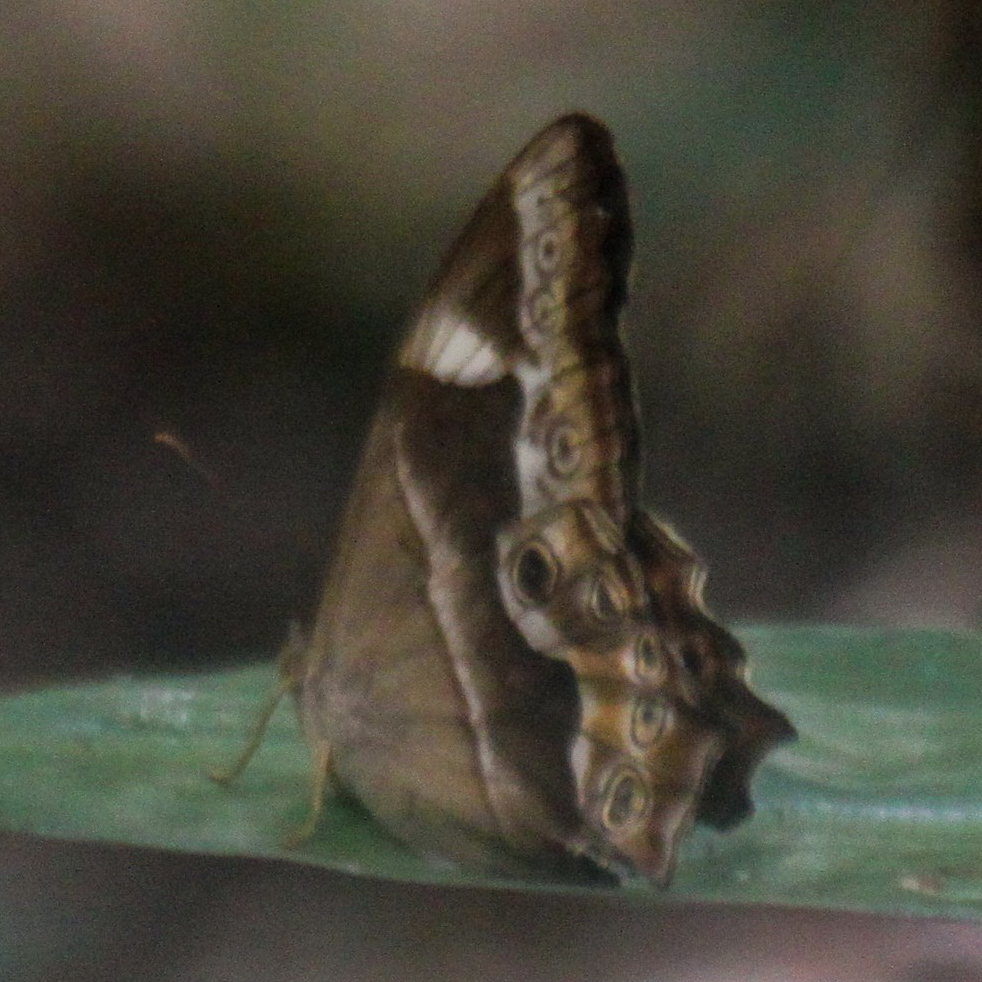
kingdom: Animalia
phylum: Arthropoda
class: Insecta
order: Lepidoptera
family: Nymphalidae
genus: Lethe
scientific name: Lethe mekara
